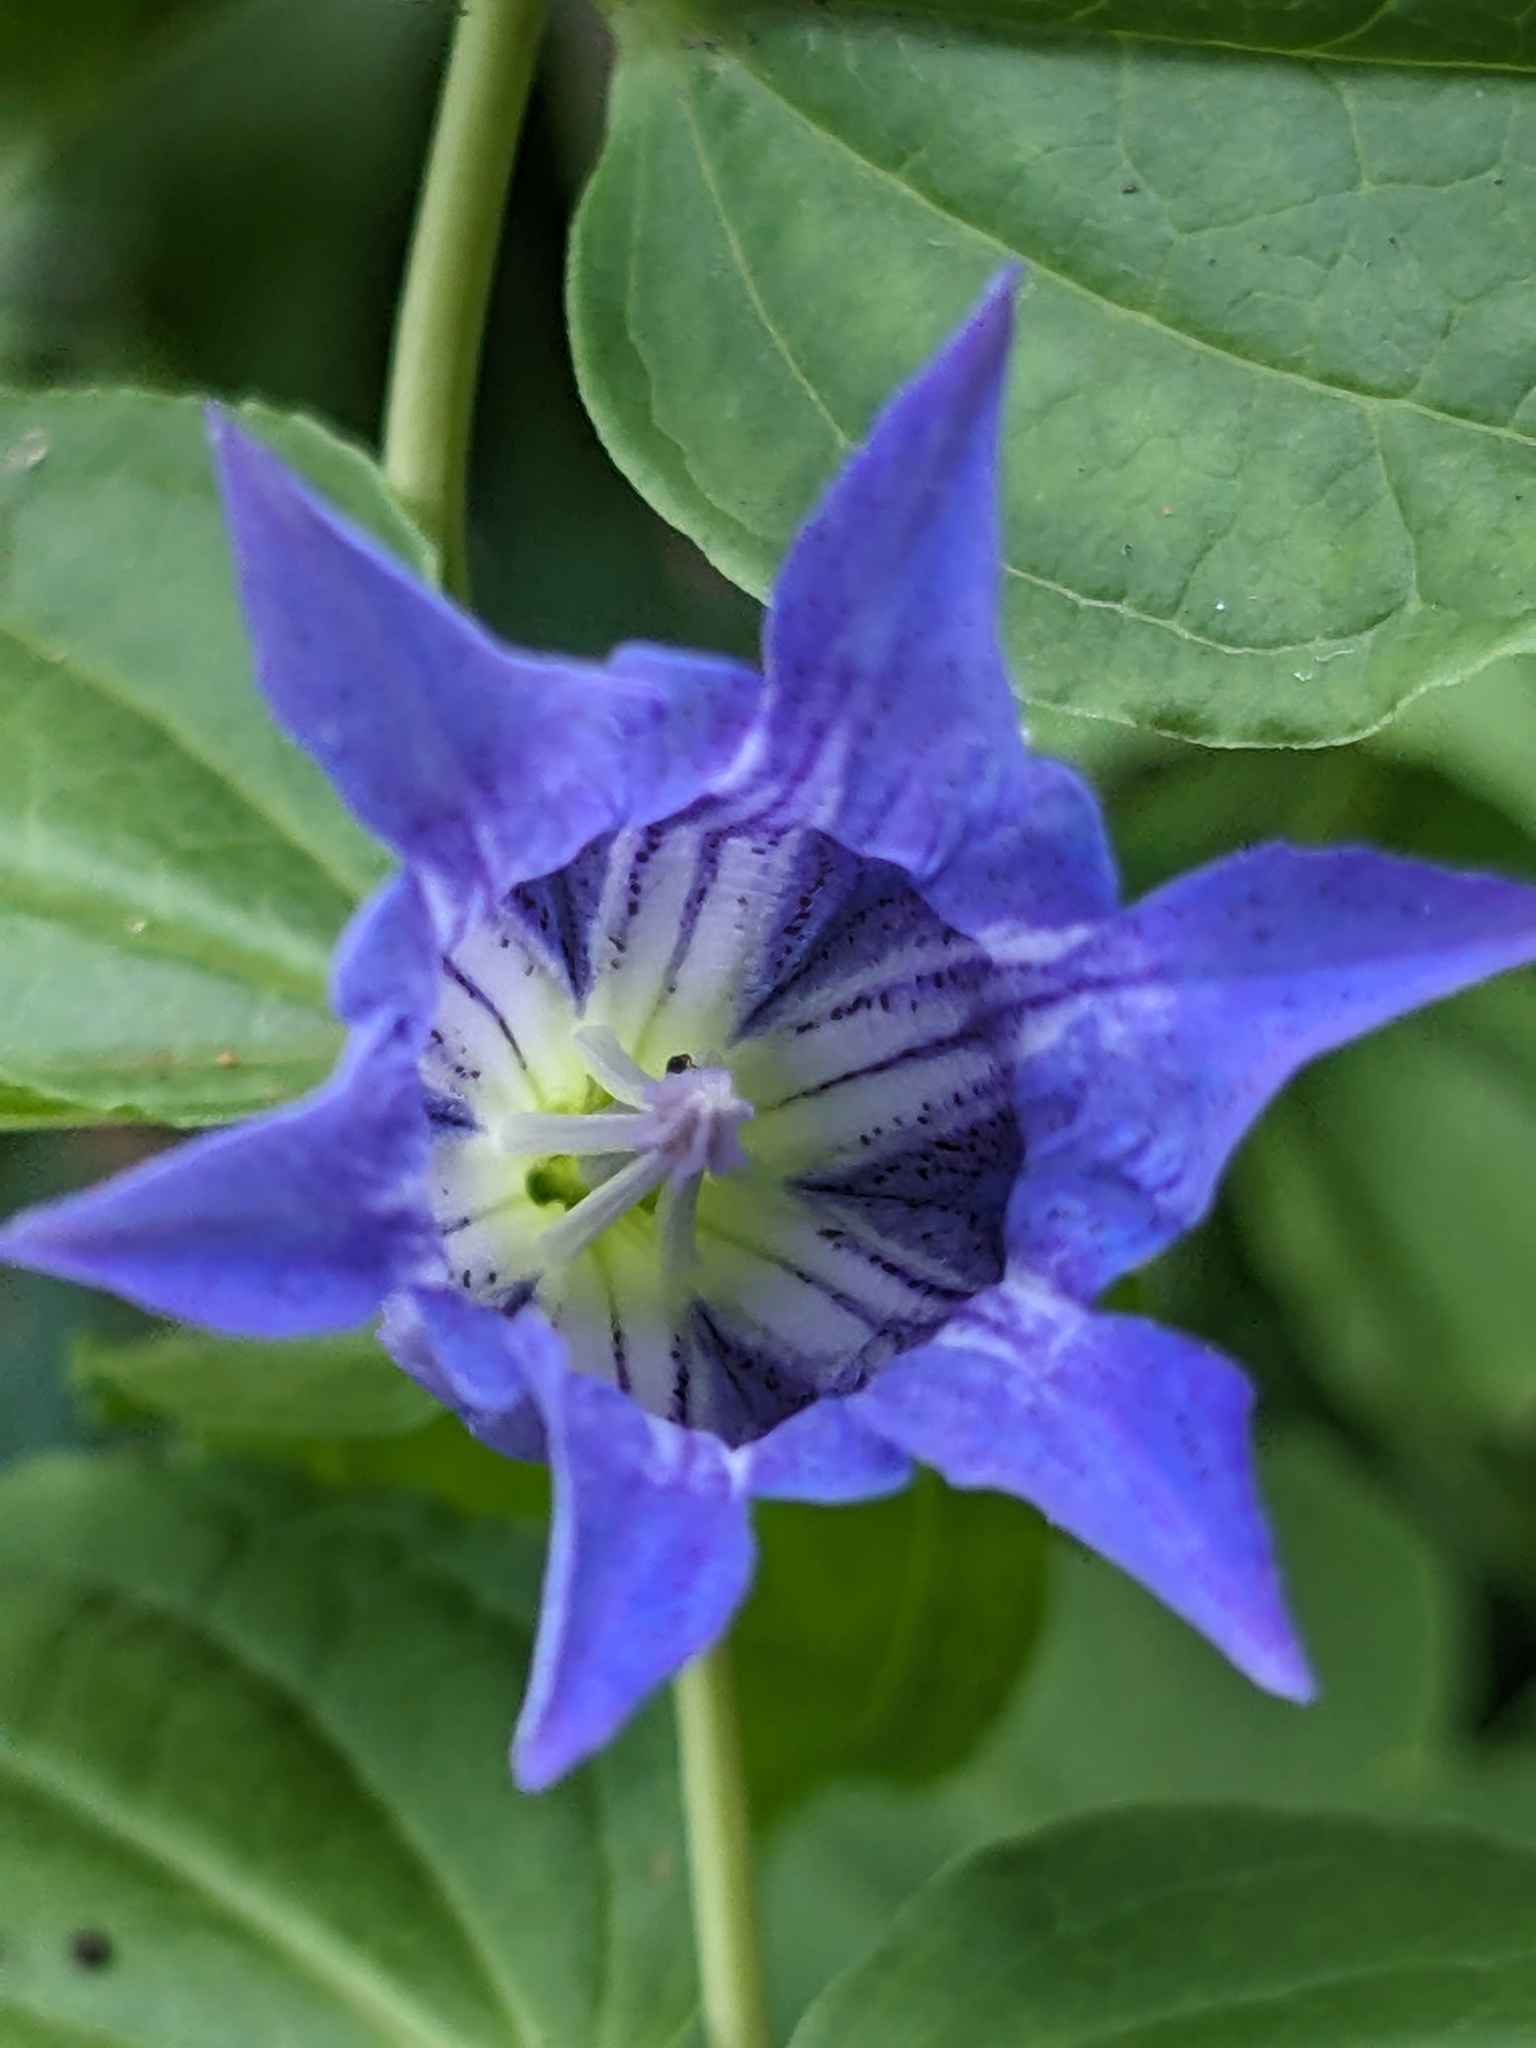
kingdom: Plantae
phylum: Tracheophyta
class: Magnoliopsida
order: Gentianales
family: Gentianaceae
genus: Gentiana
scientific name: Gentiana asclepiadea
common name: Willow gentian
